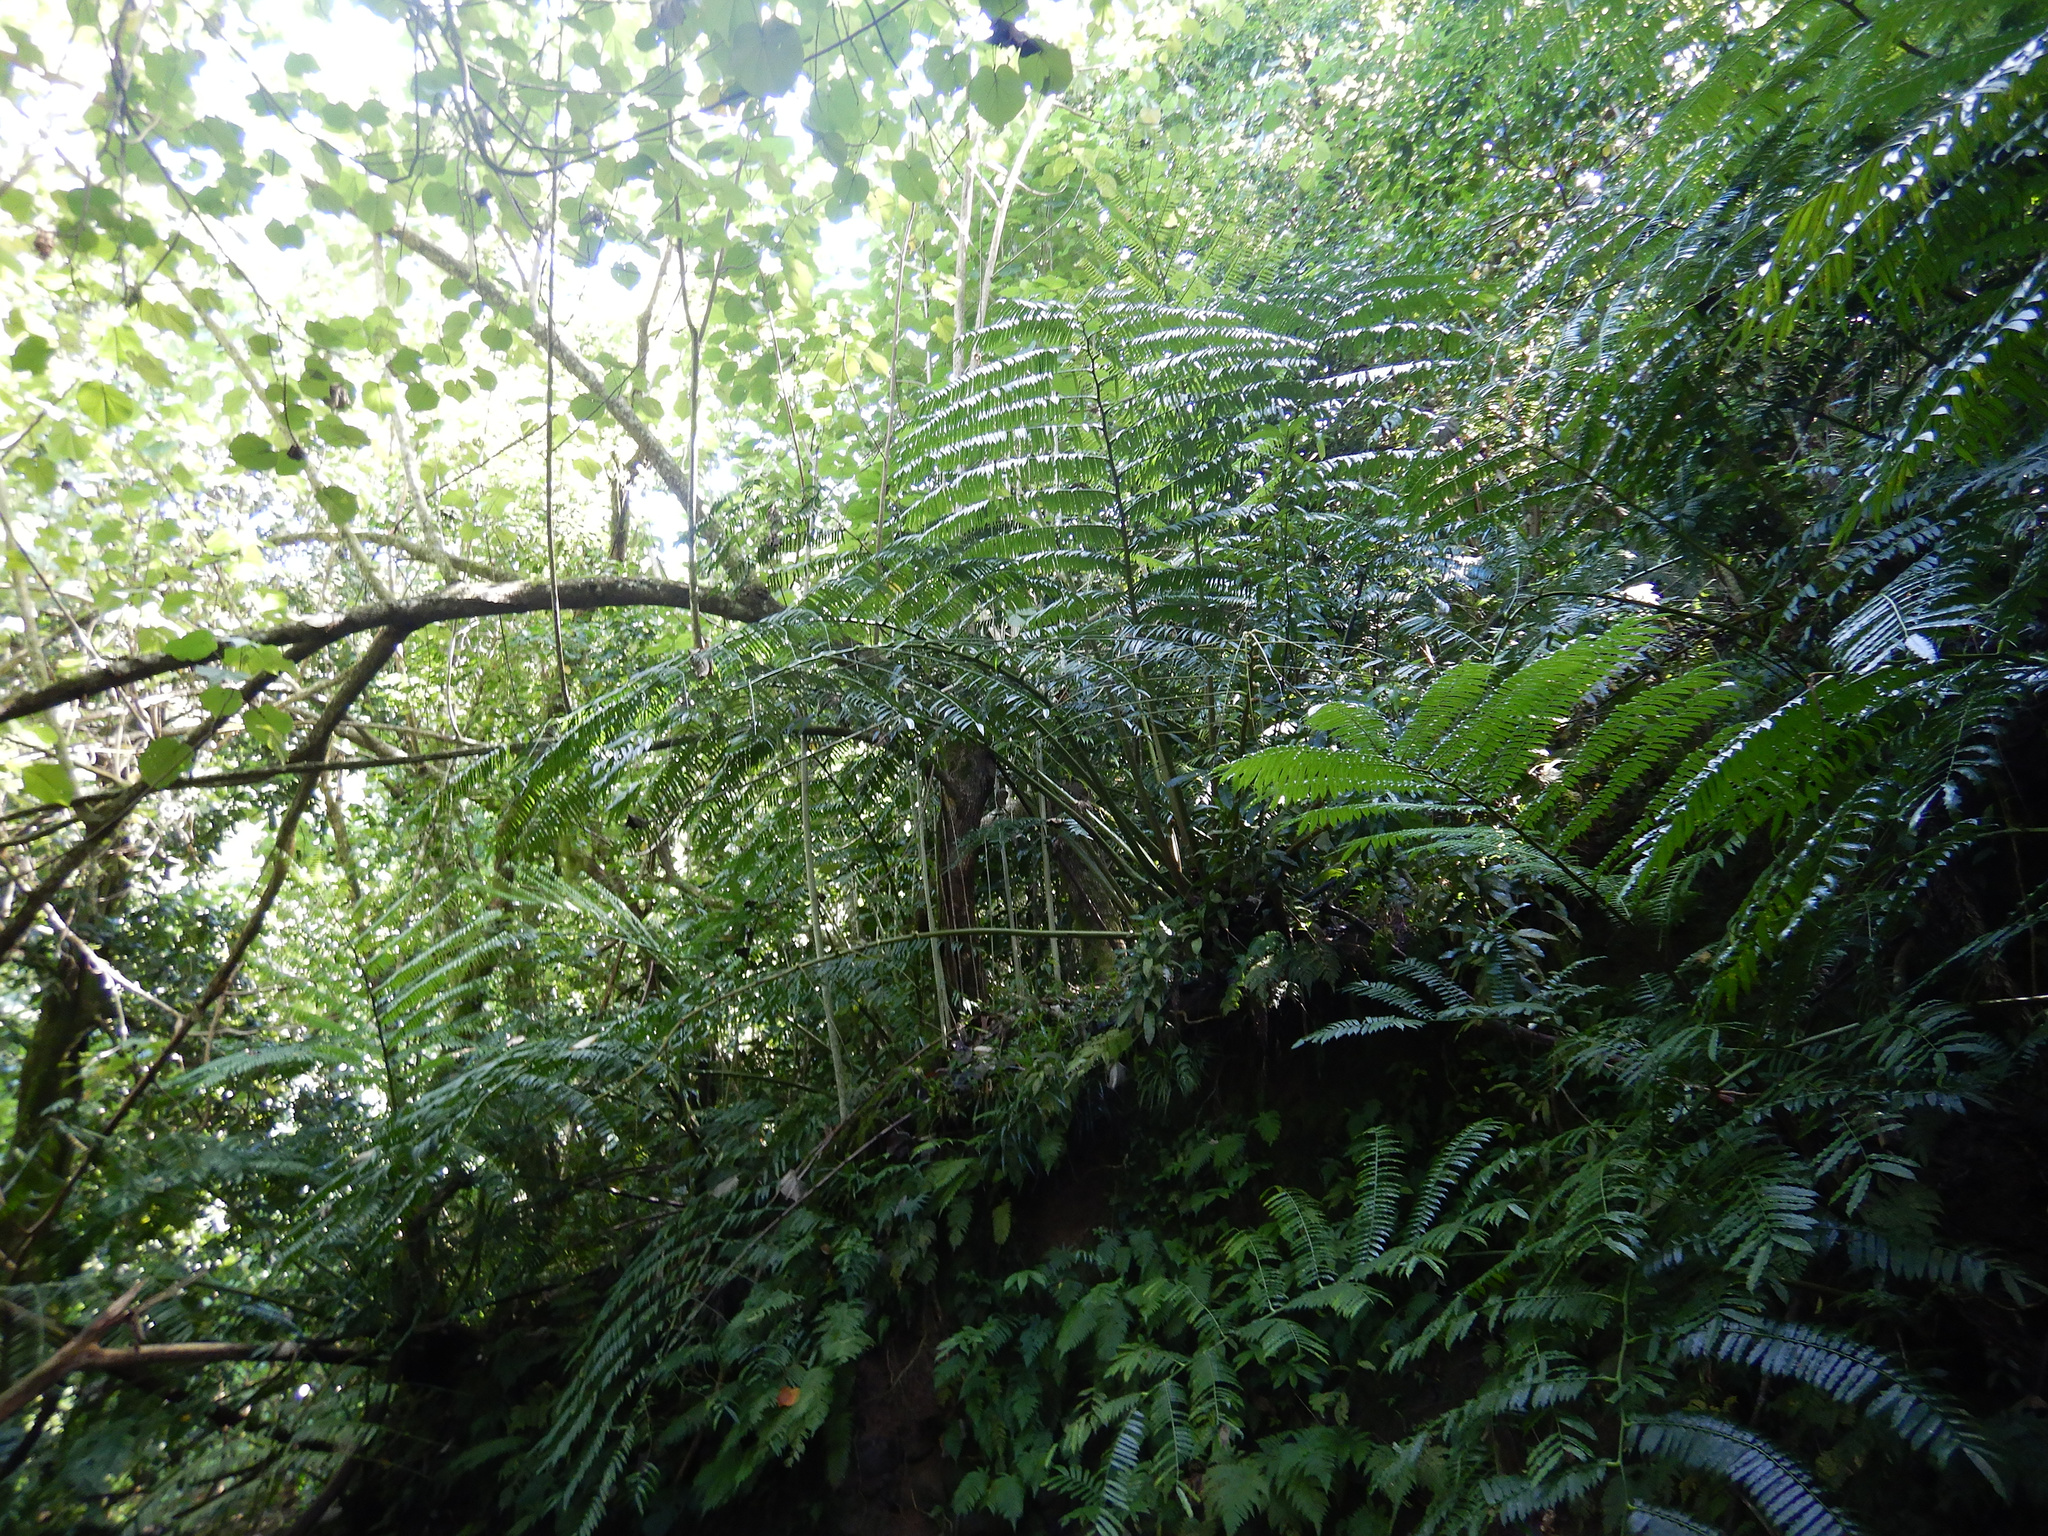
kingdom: Plantae
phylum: Tracheophyta
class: Polypodiopsida
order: Marattiales
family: Marattiaceae
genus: Angiopteris
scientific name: Angiopteris evecta
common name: Mule's-foot fern
